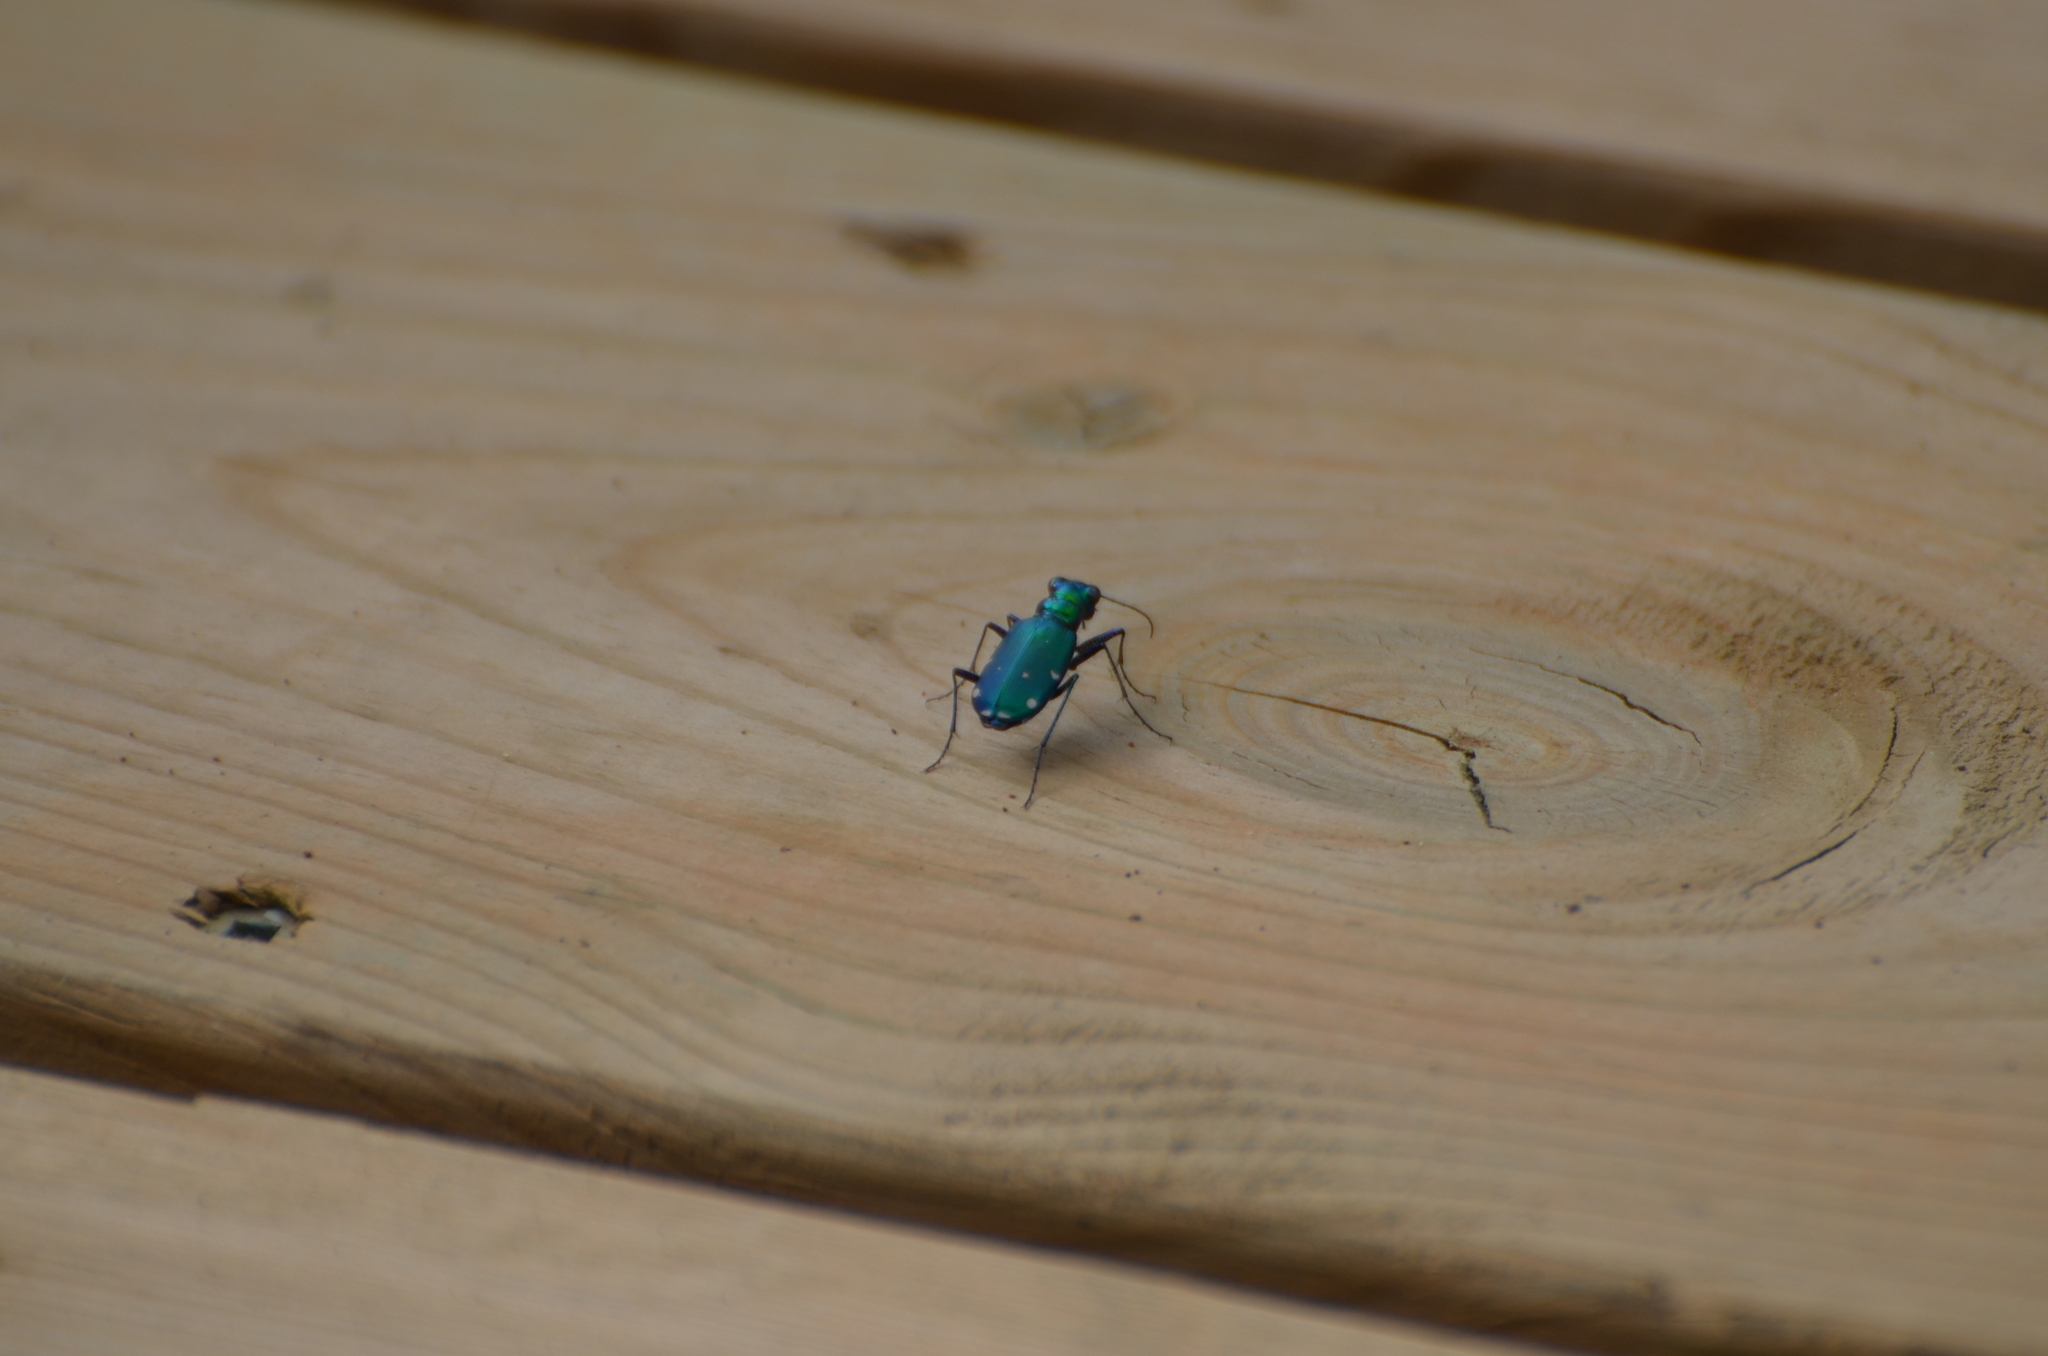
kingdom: Animalia
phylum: Arthropoda
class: Insecta
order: Coleoptera
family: Carabidae
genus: Cicindela
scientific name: Cicindela sexguttata
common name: Six-spotted tiger beetle
